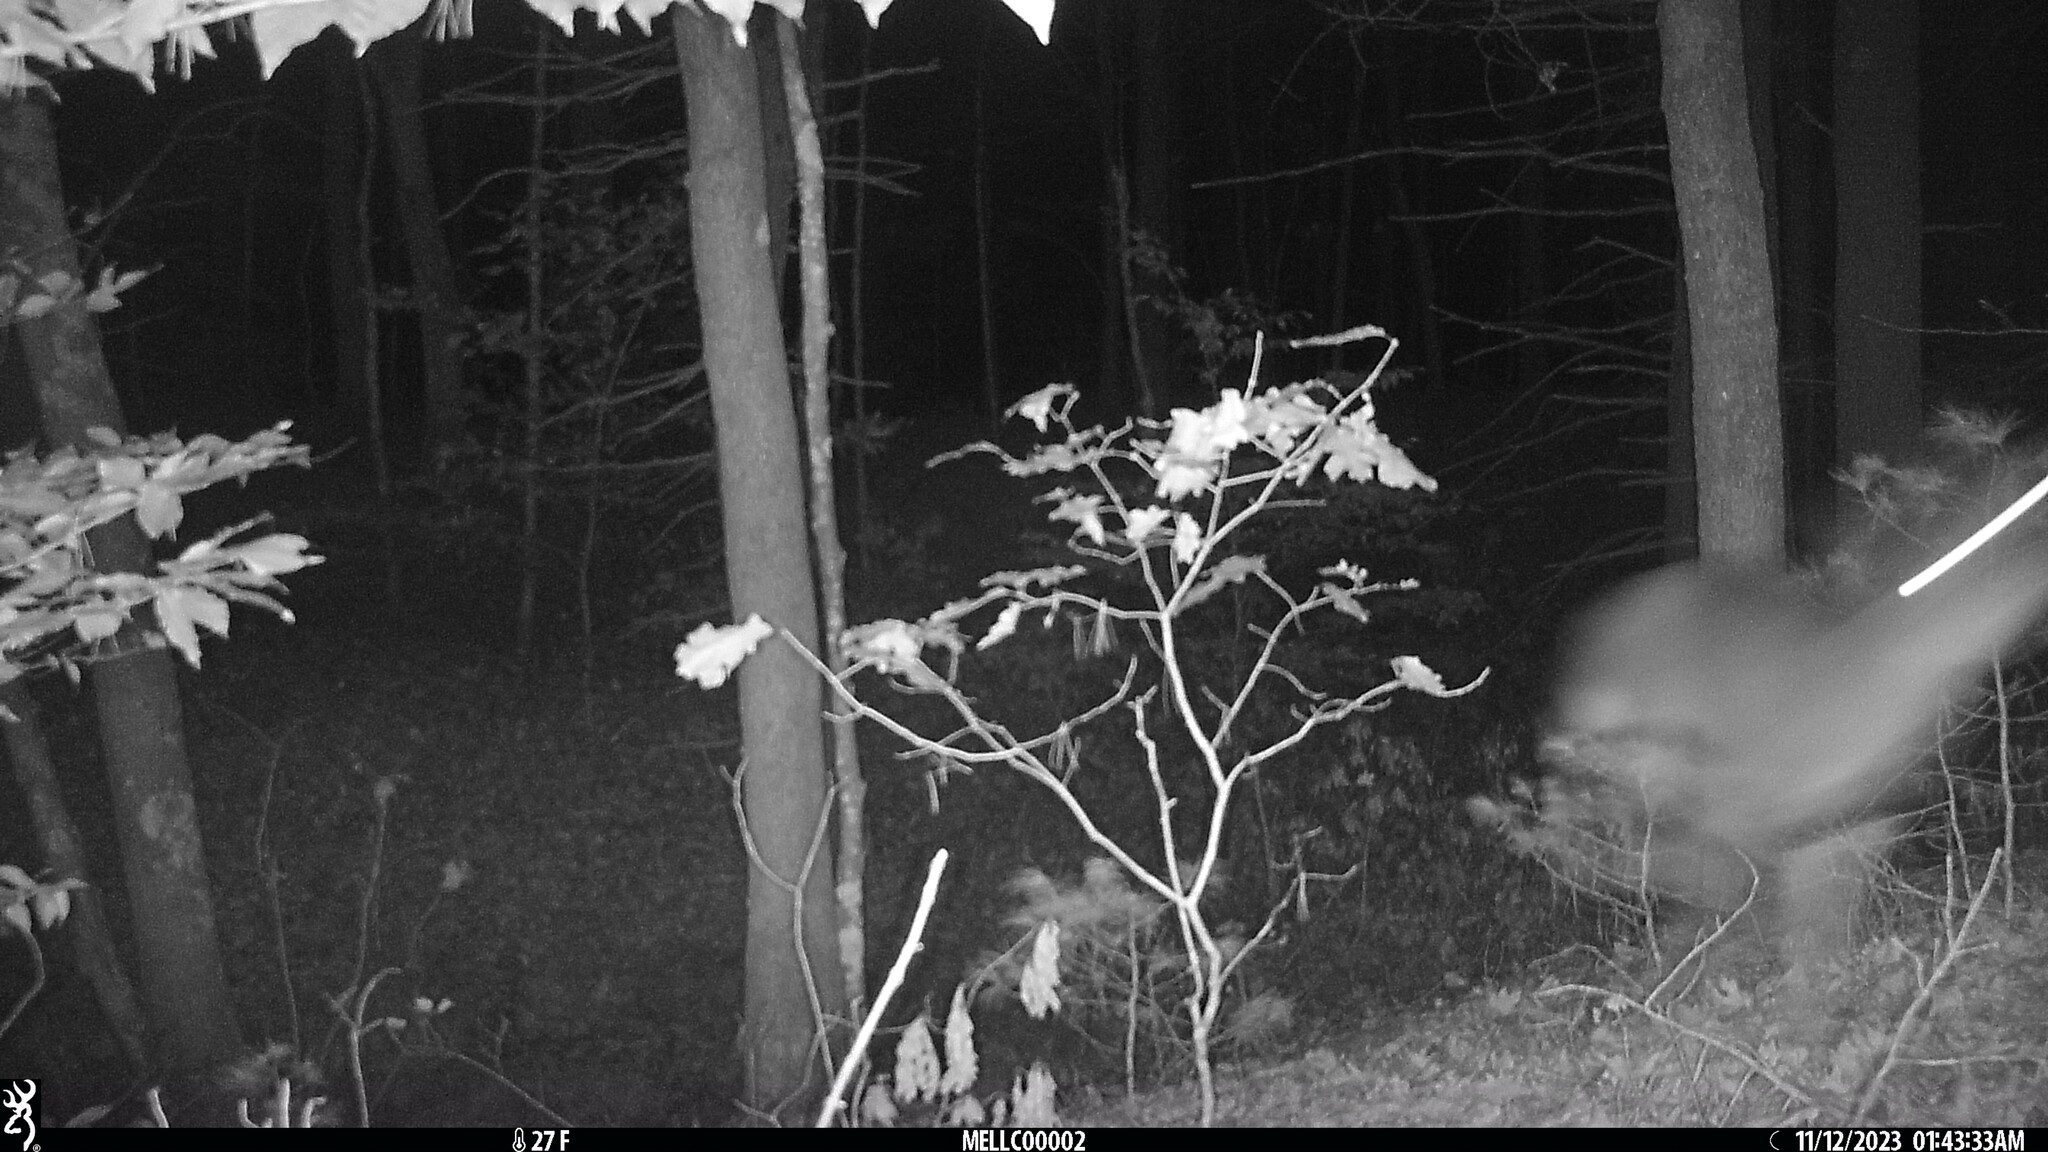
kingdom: Animalia
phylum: Chordata
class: Mammalia
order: Artiodactyla
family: Cervidae
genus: Odocoileus
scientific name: Odocoileus virginianus
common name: White-tailed deer
